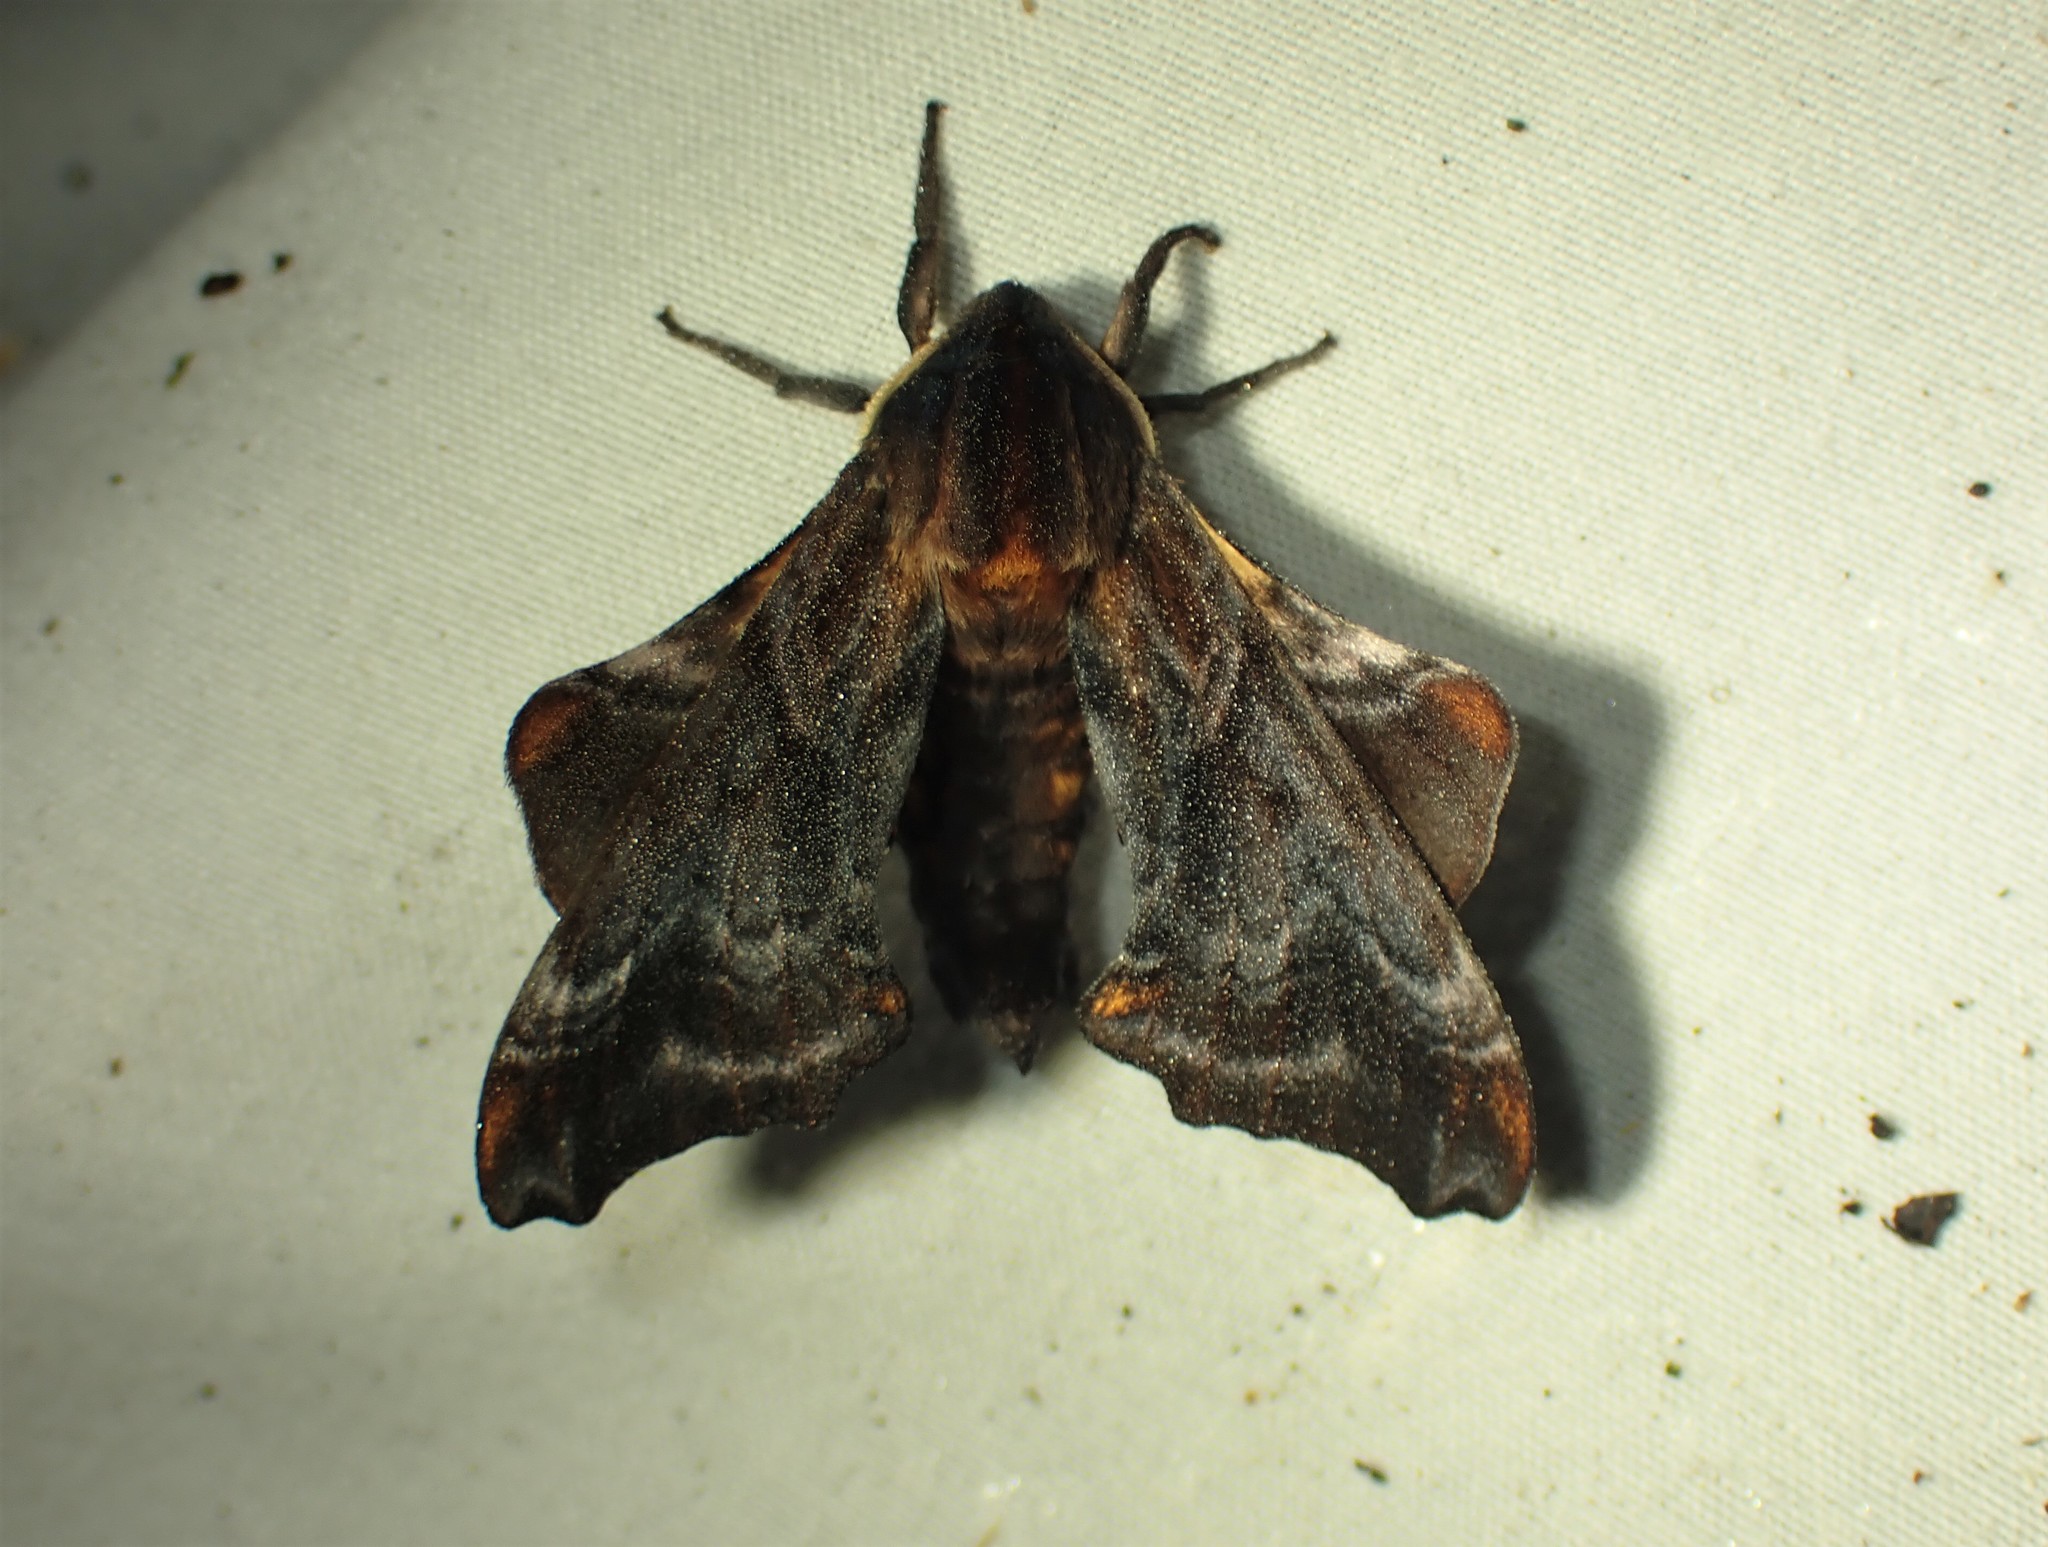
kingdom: Animalia
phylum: Arthropoda
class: Insecta
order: Lepidoptera
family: Sphingidae
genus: Paonias
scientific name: Paonias myops
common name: Small-eyed sphinx
